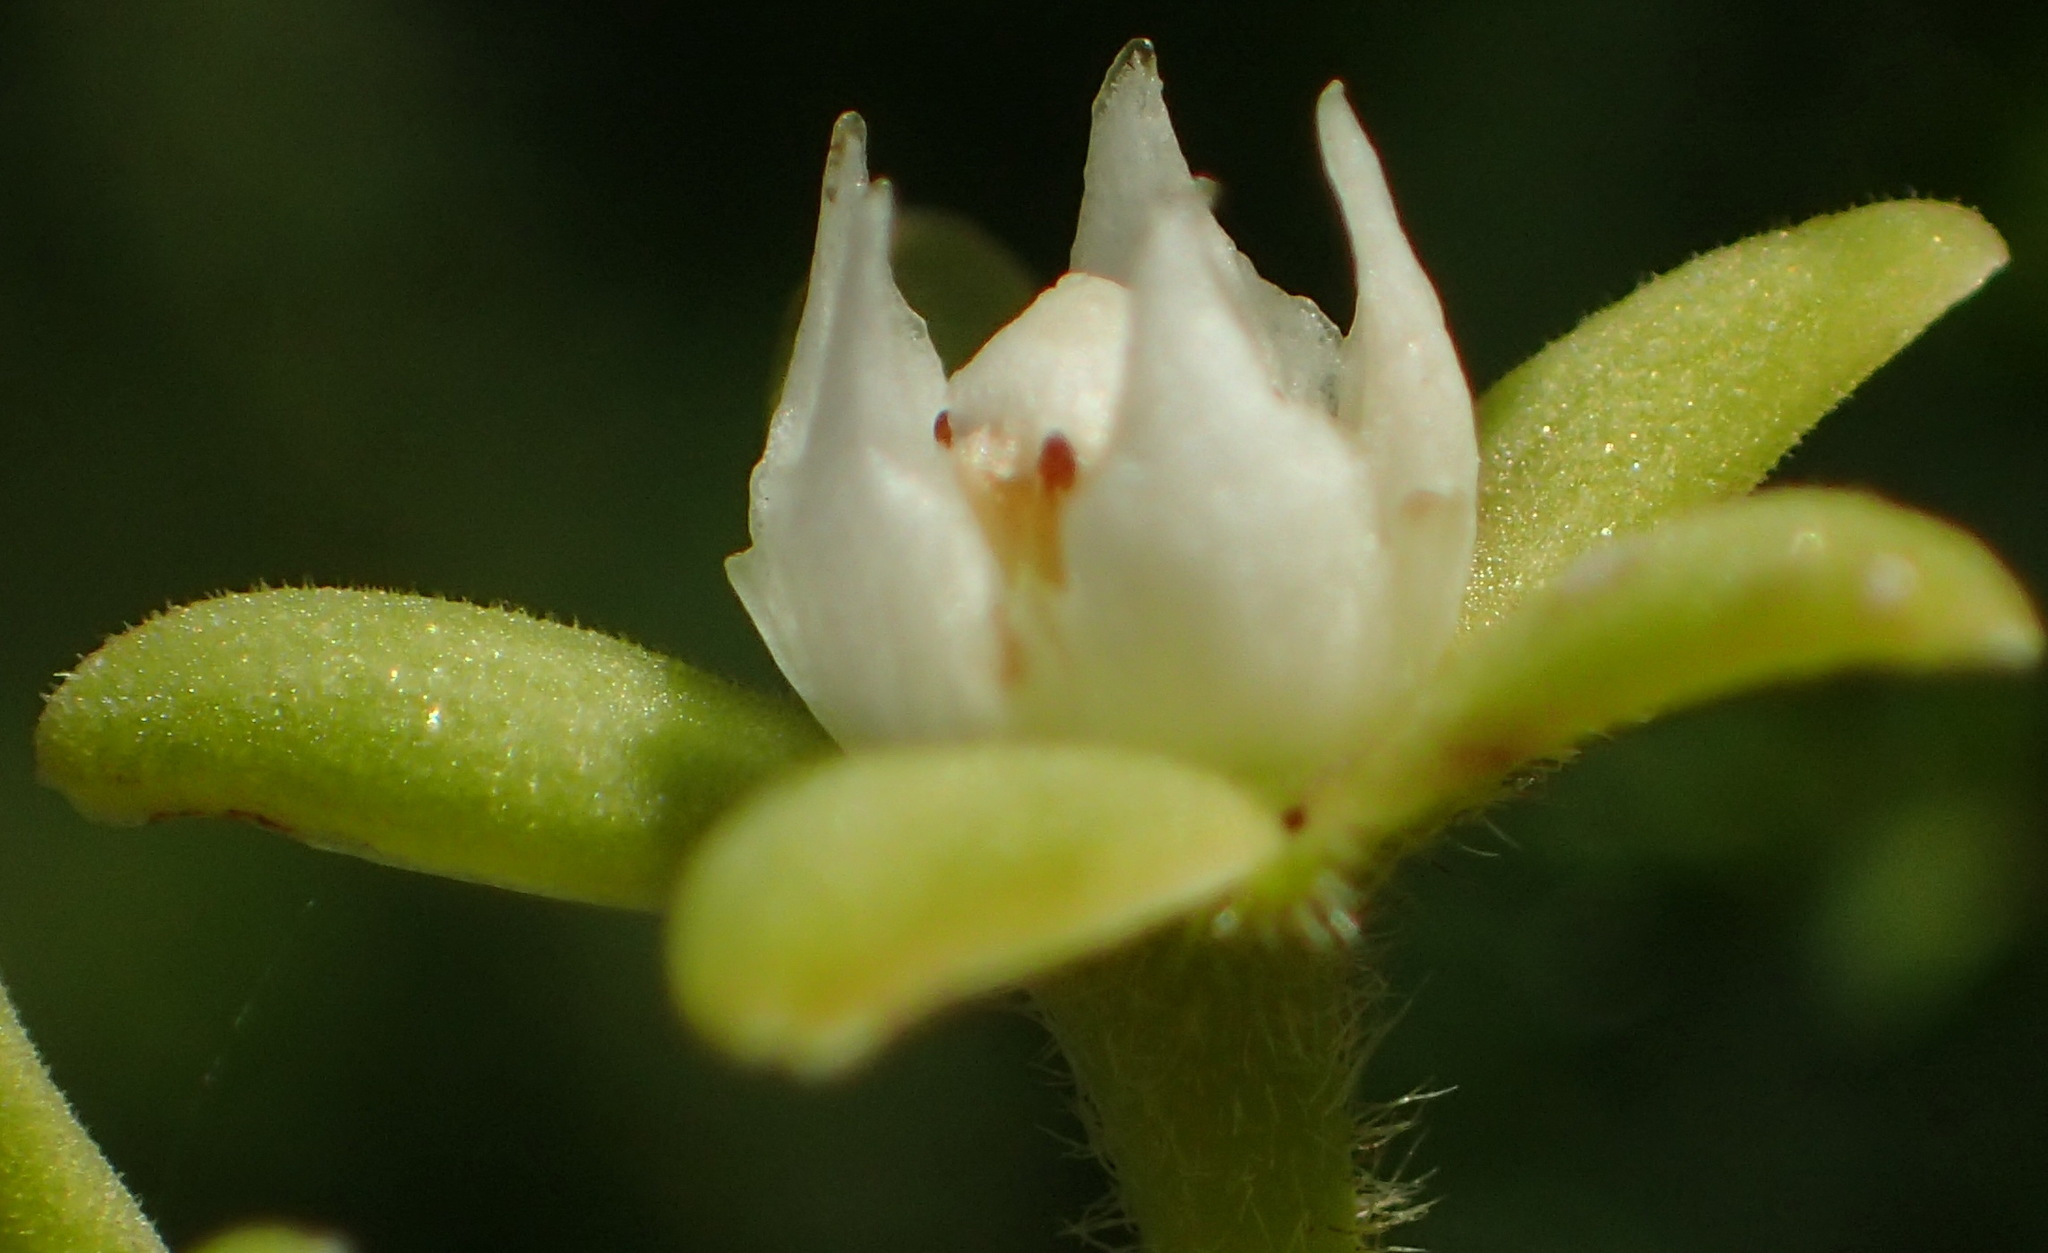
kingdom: Plantae
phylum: Tracheophyta
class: Magnoliopsida
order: Gentianales
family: Apocynaceae
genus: Cynanchum
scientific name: Cynanchum obtusifolium
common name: Monkey-rope
